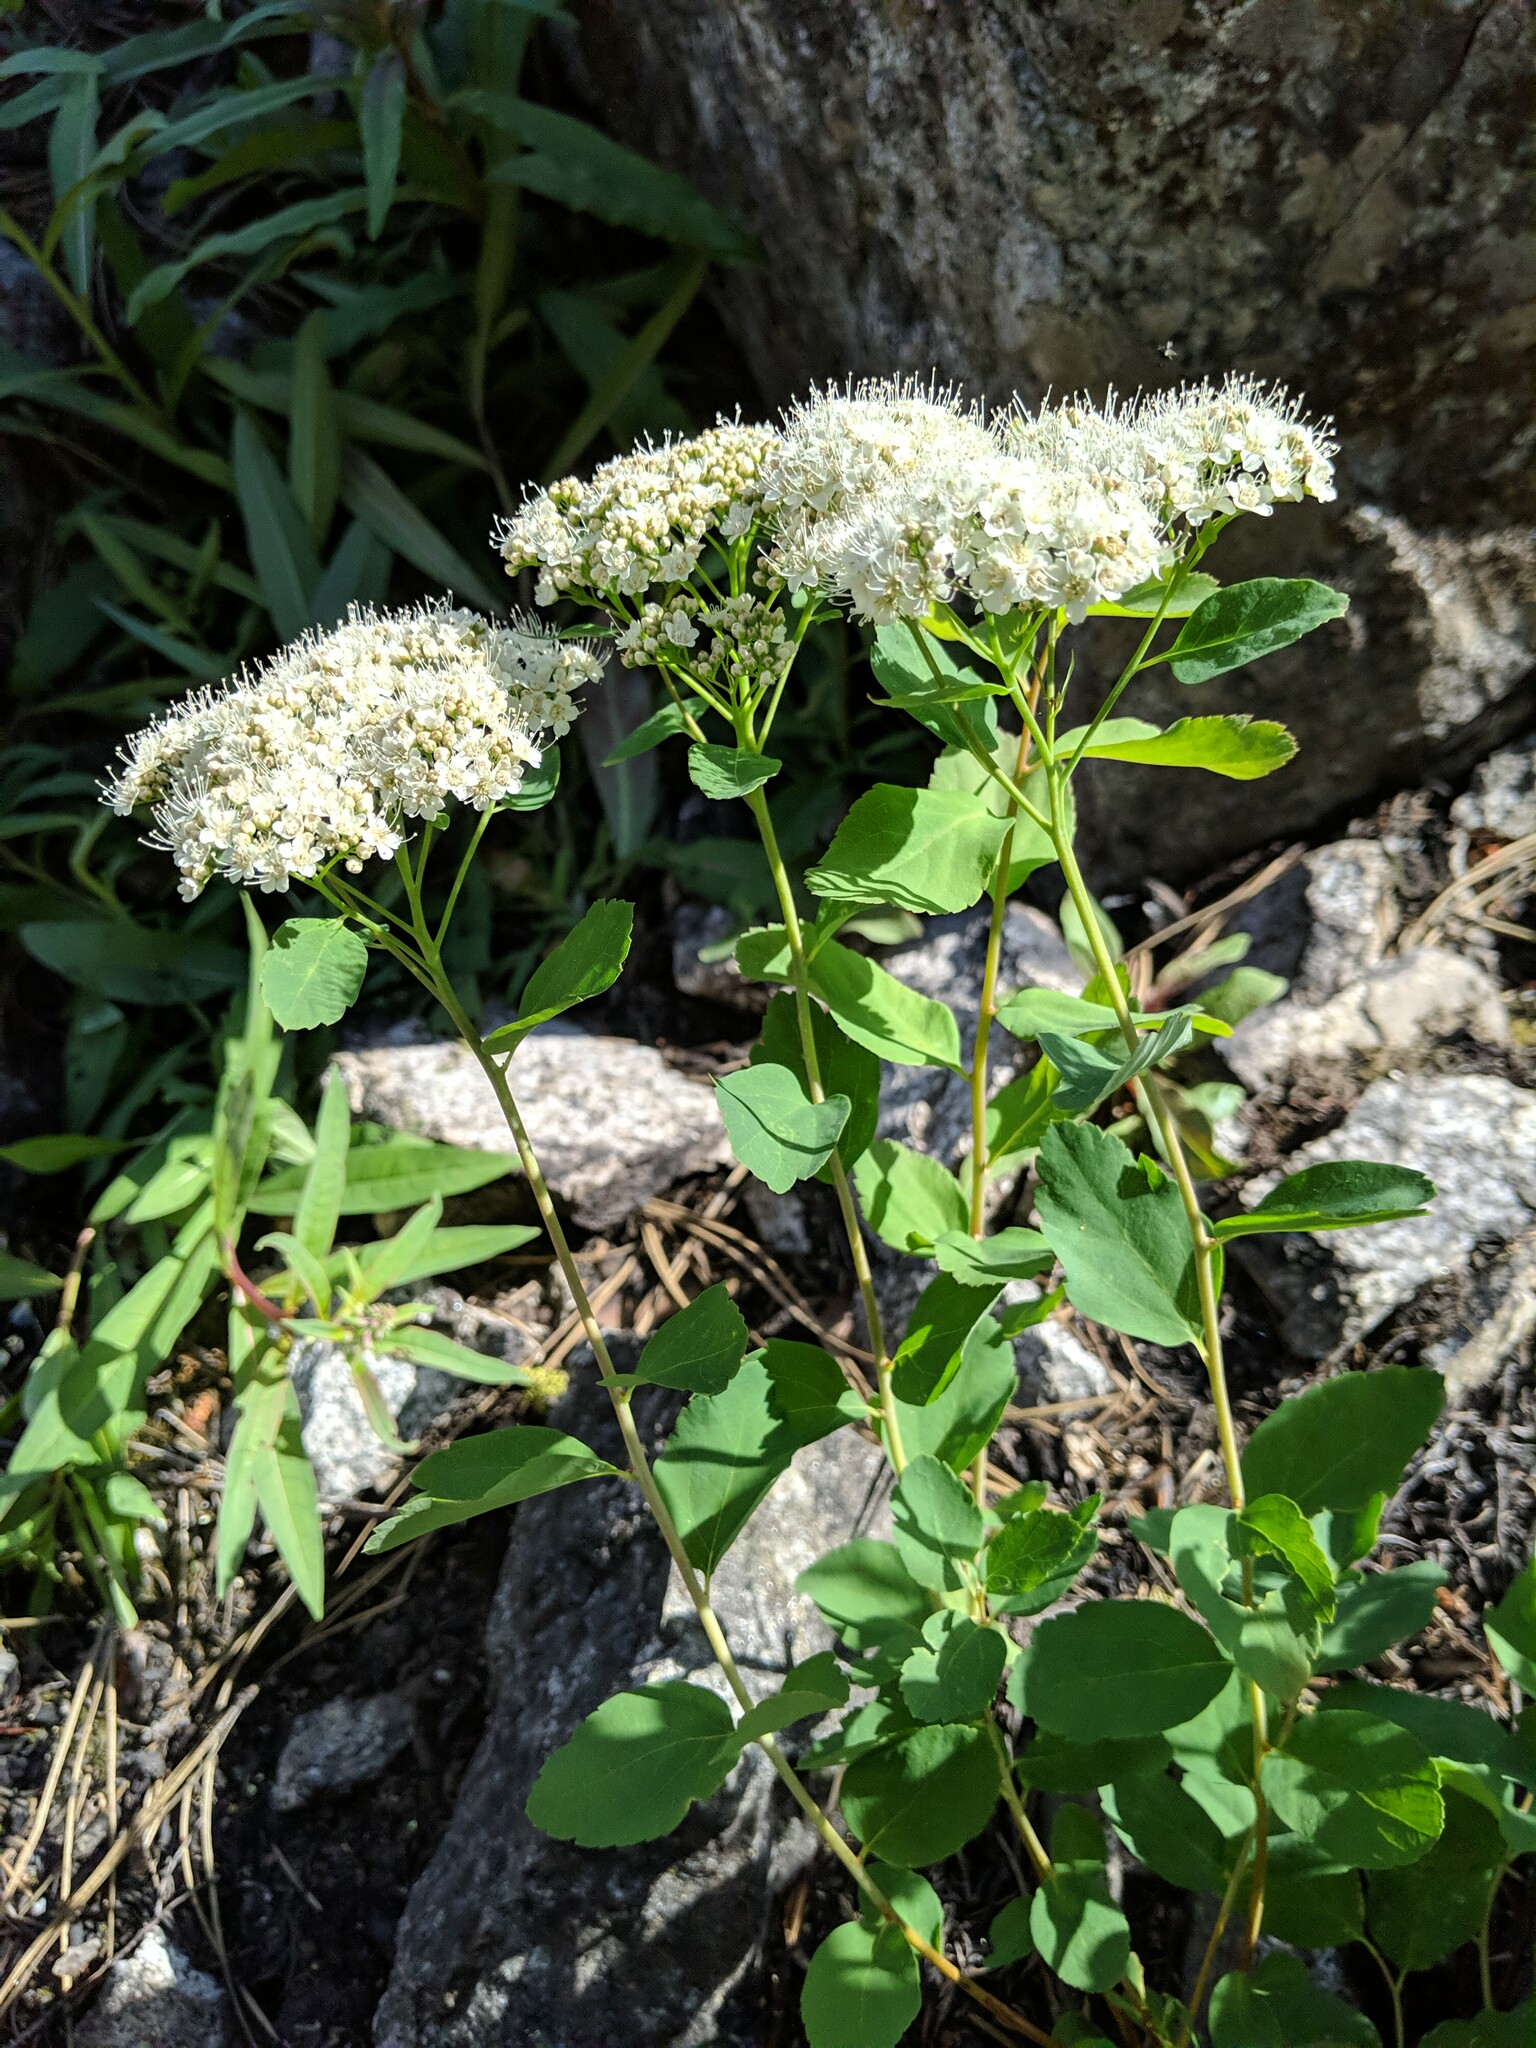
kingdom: Plantae
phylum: Tracheophyta
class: Magnoliopsida
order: Rosales
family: Rosaceae
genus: Spiraea
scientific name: Spiraea lucida
